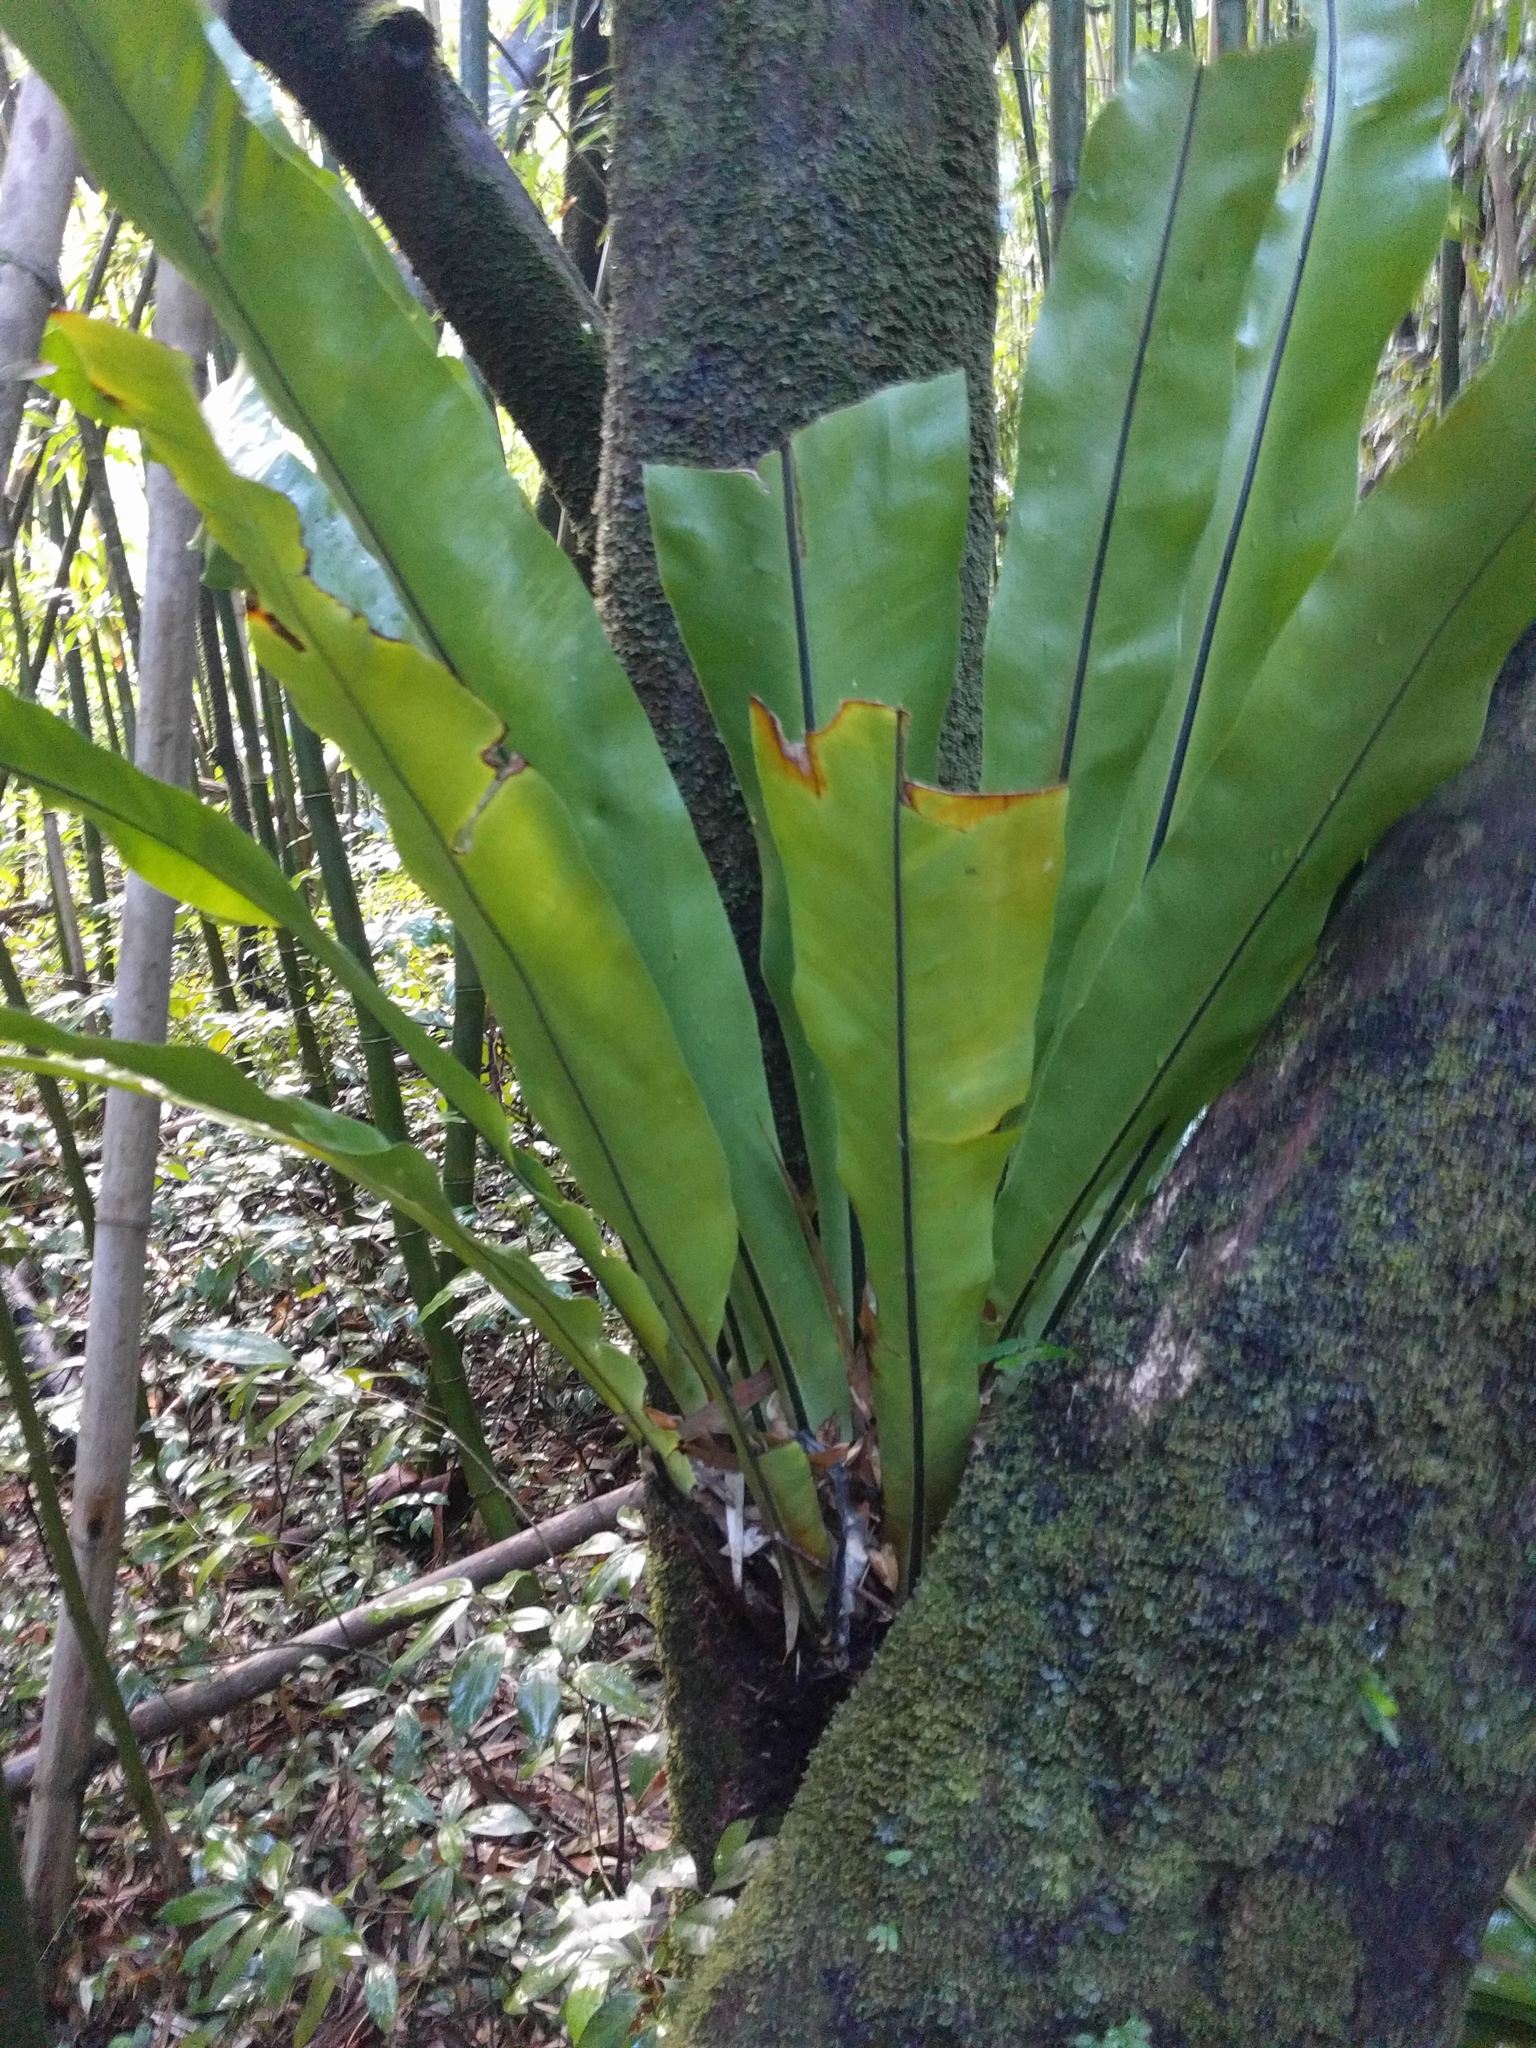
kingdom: Plantae
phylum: Tracheophyta
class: Polypodiopsida
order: Polypodiales
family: Aspleniaceae
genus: Asplenium
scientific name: Asplenium nidus
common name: Bird's-nest fern
